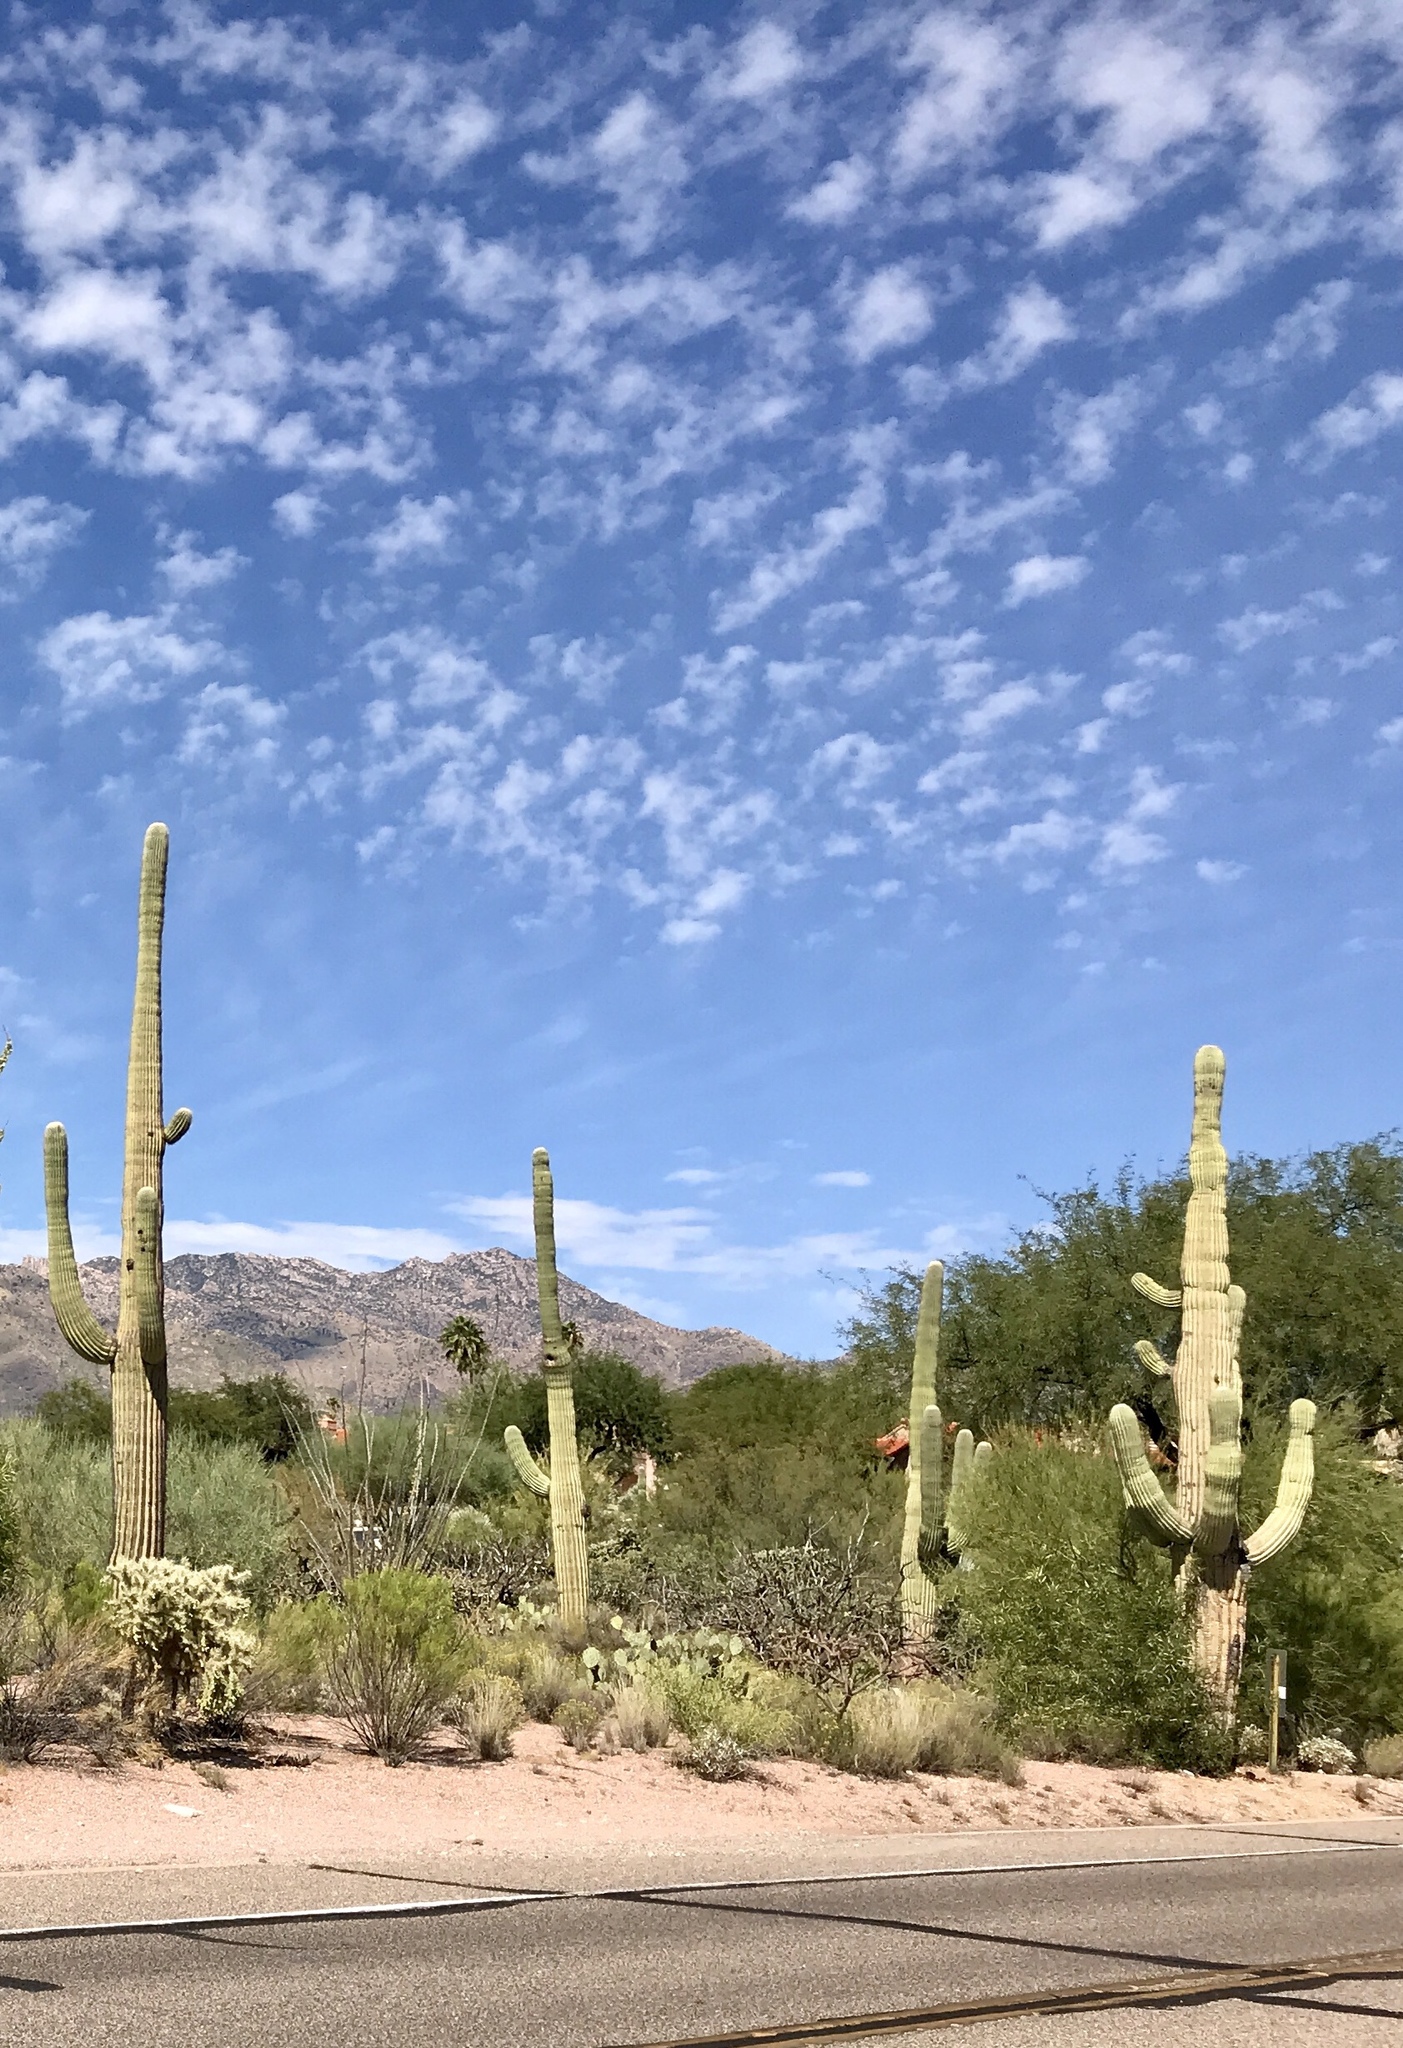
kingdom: Plantae
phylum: Tracheophyta
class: Magnoliopsida
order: Caryophyllales
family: Cactaceae
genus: Carnegiea
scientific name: Carnegiea gigantea
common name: Saguaro
